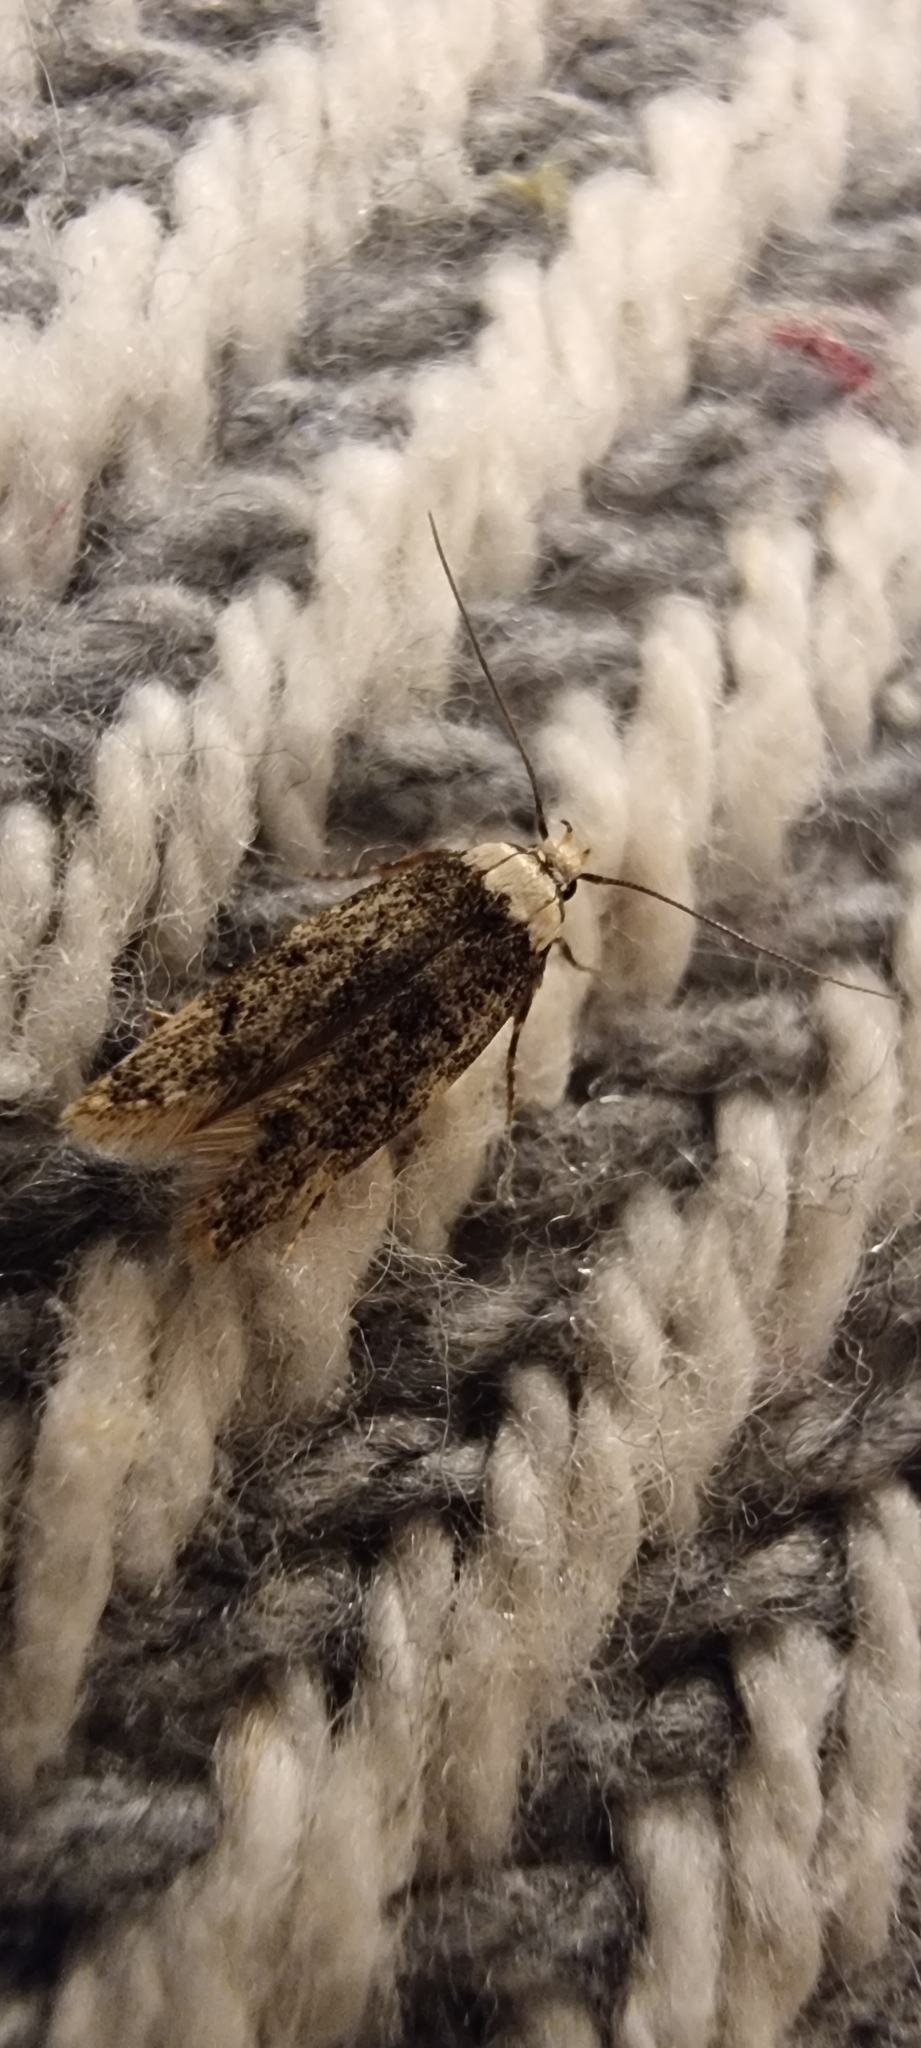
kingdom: Animalia
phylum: Arthropoda
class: Insecta
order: Lepidoptera
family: Oecophoridae
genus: Endrosis
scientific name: Endrosis sarcitrella
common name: White-shouldered house moth
